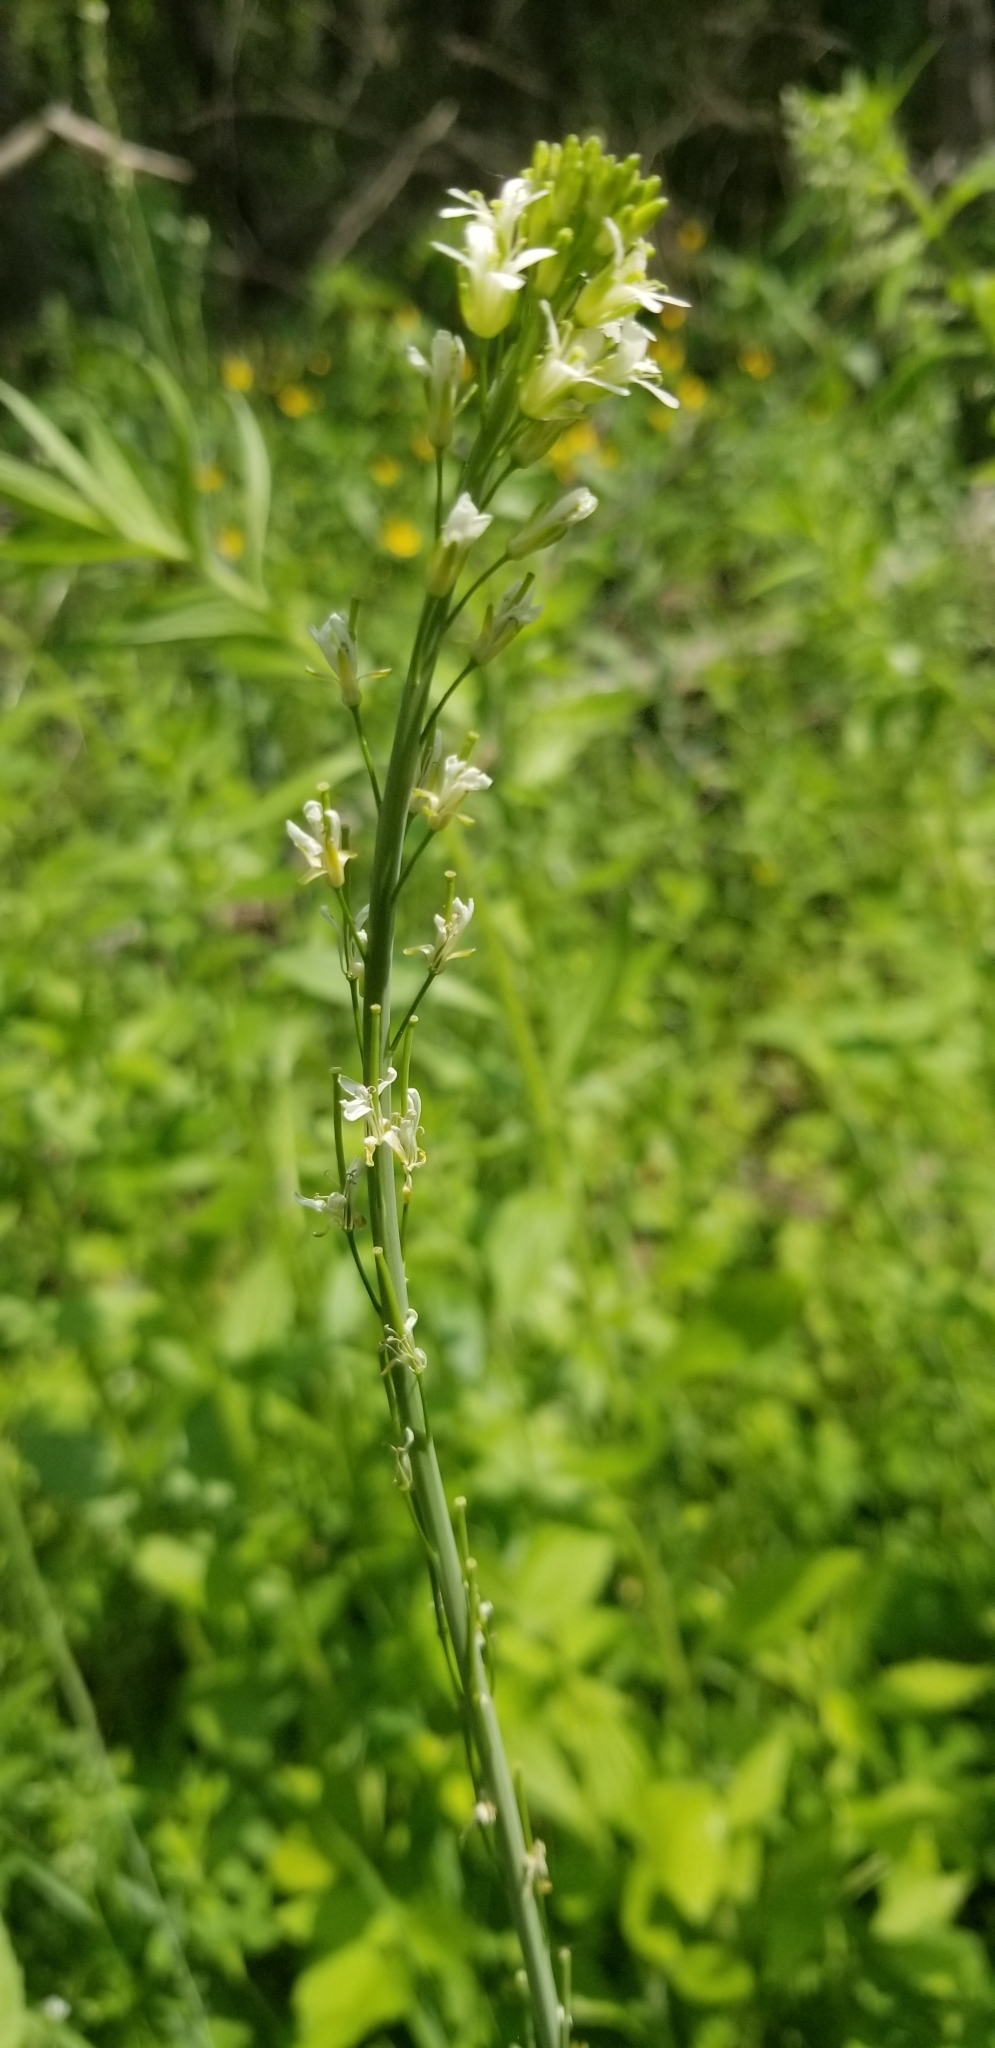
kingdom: Plantae
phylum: Tracheophyta
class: Magnoliopsida
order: Brassicales
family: Brassicaceae
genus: Turritis
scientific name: Turritis glabra
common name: Tower rockcress
